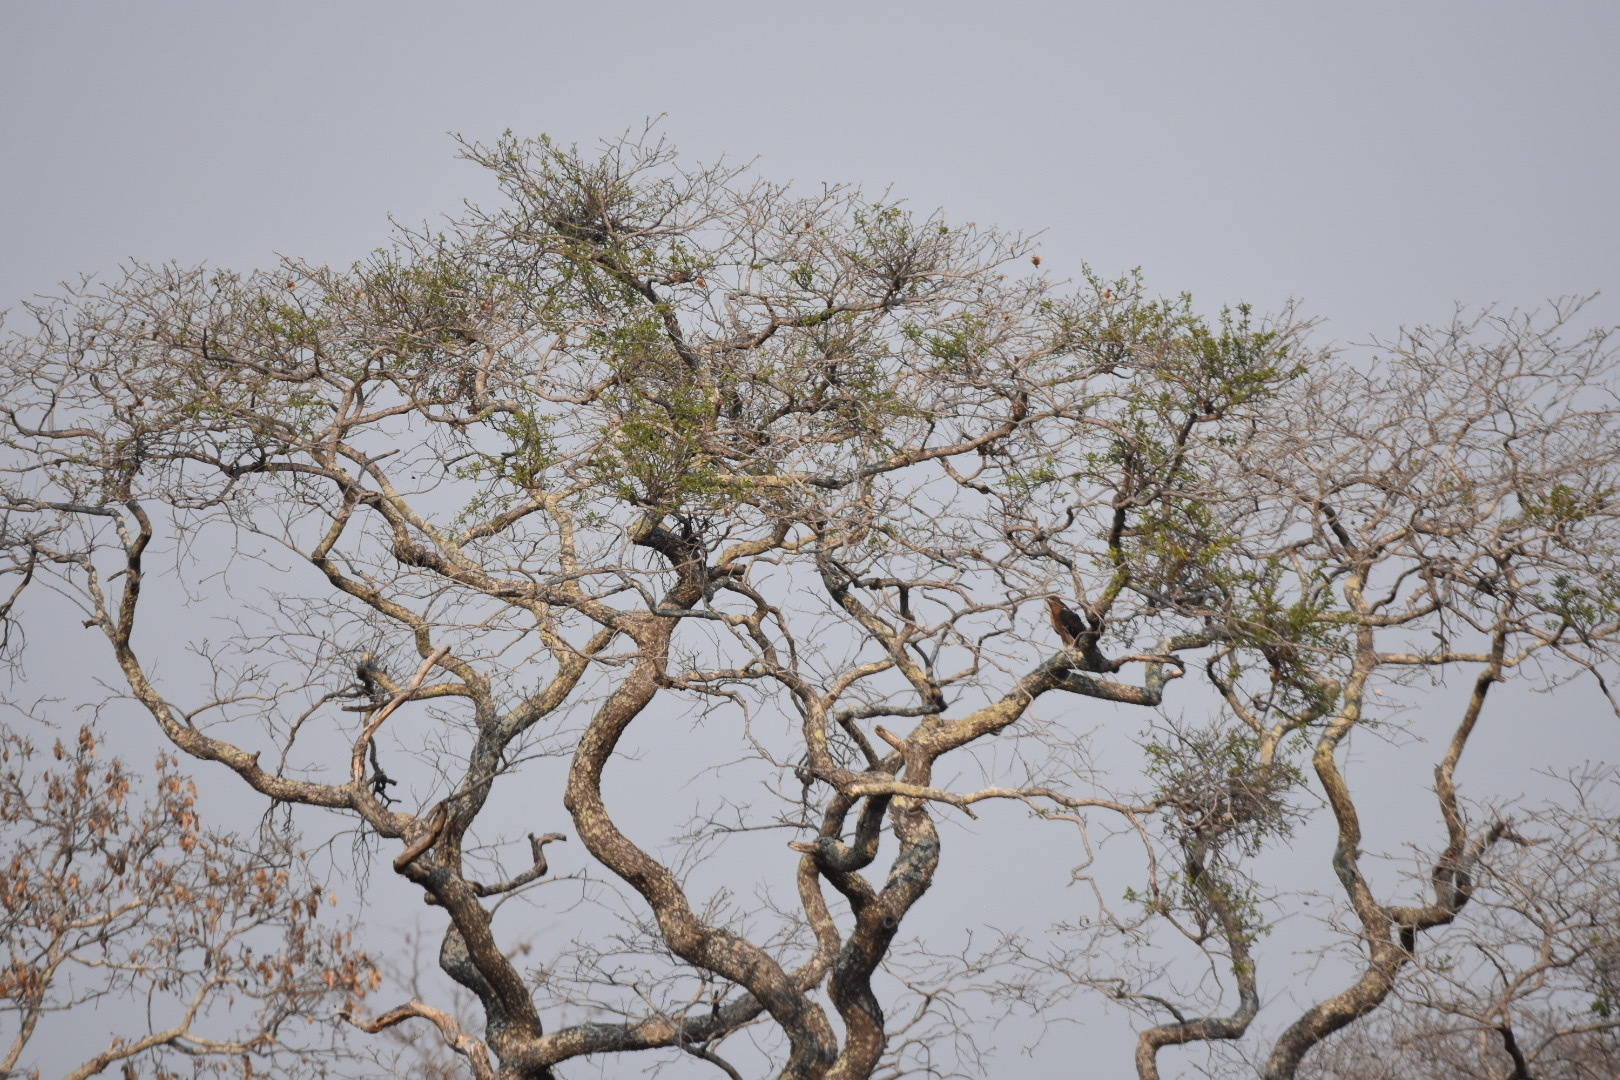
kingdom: Animalia
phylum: Chordata
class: Aves
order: Accipitriformes
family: Accipitridae
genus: Aquila
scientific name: Aquila spilogaster
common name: African hawk-eagle
